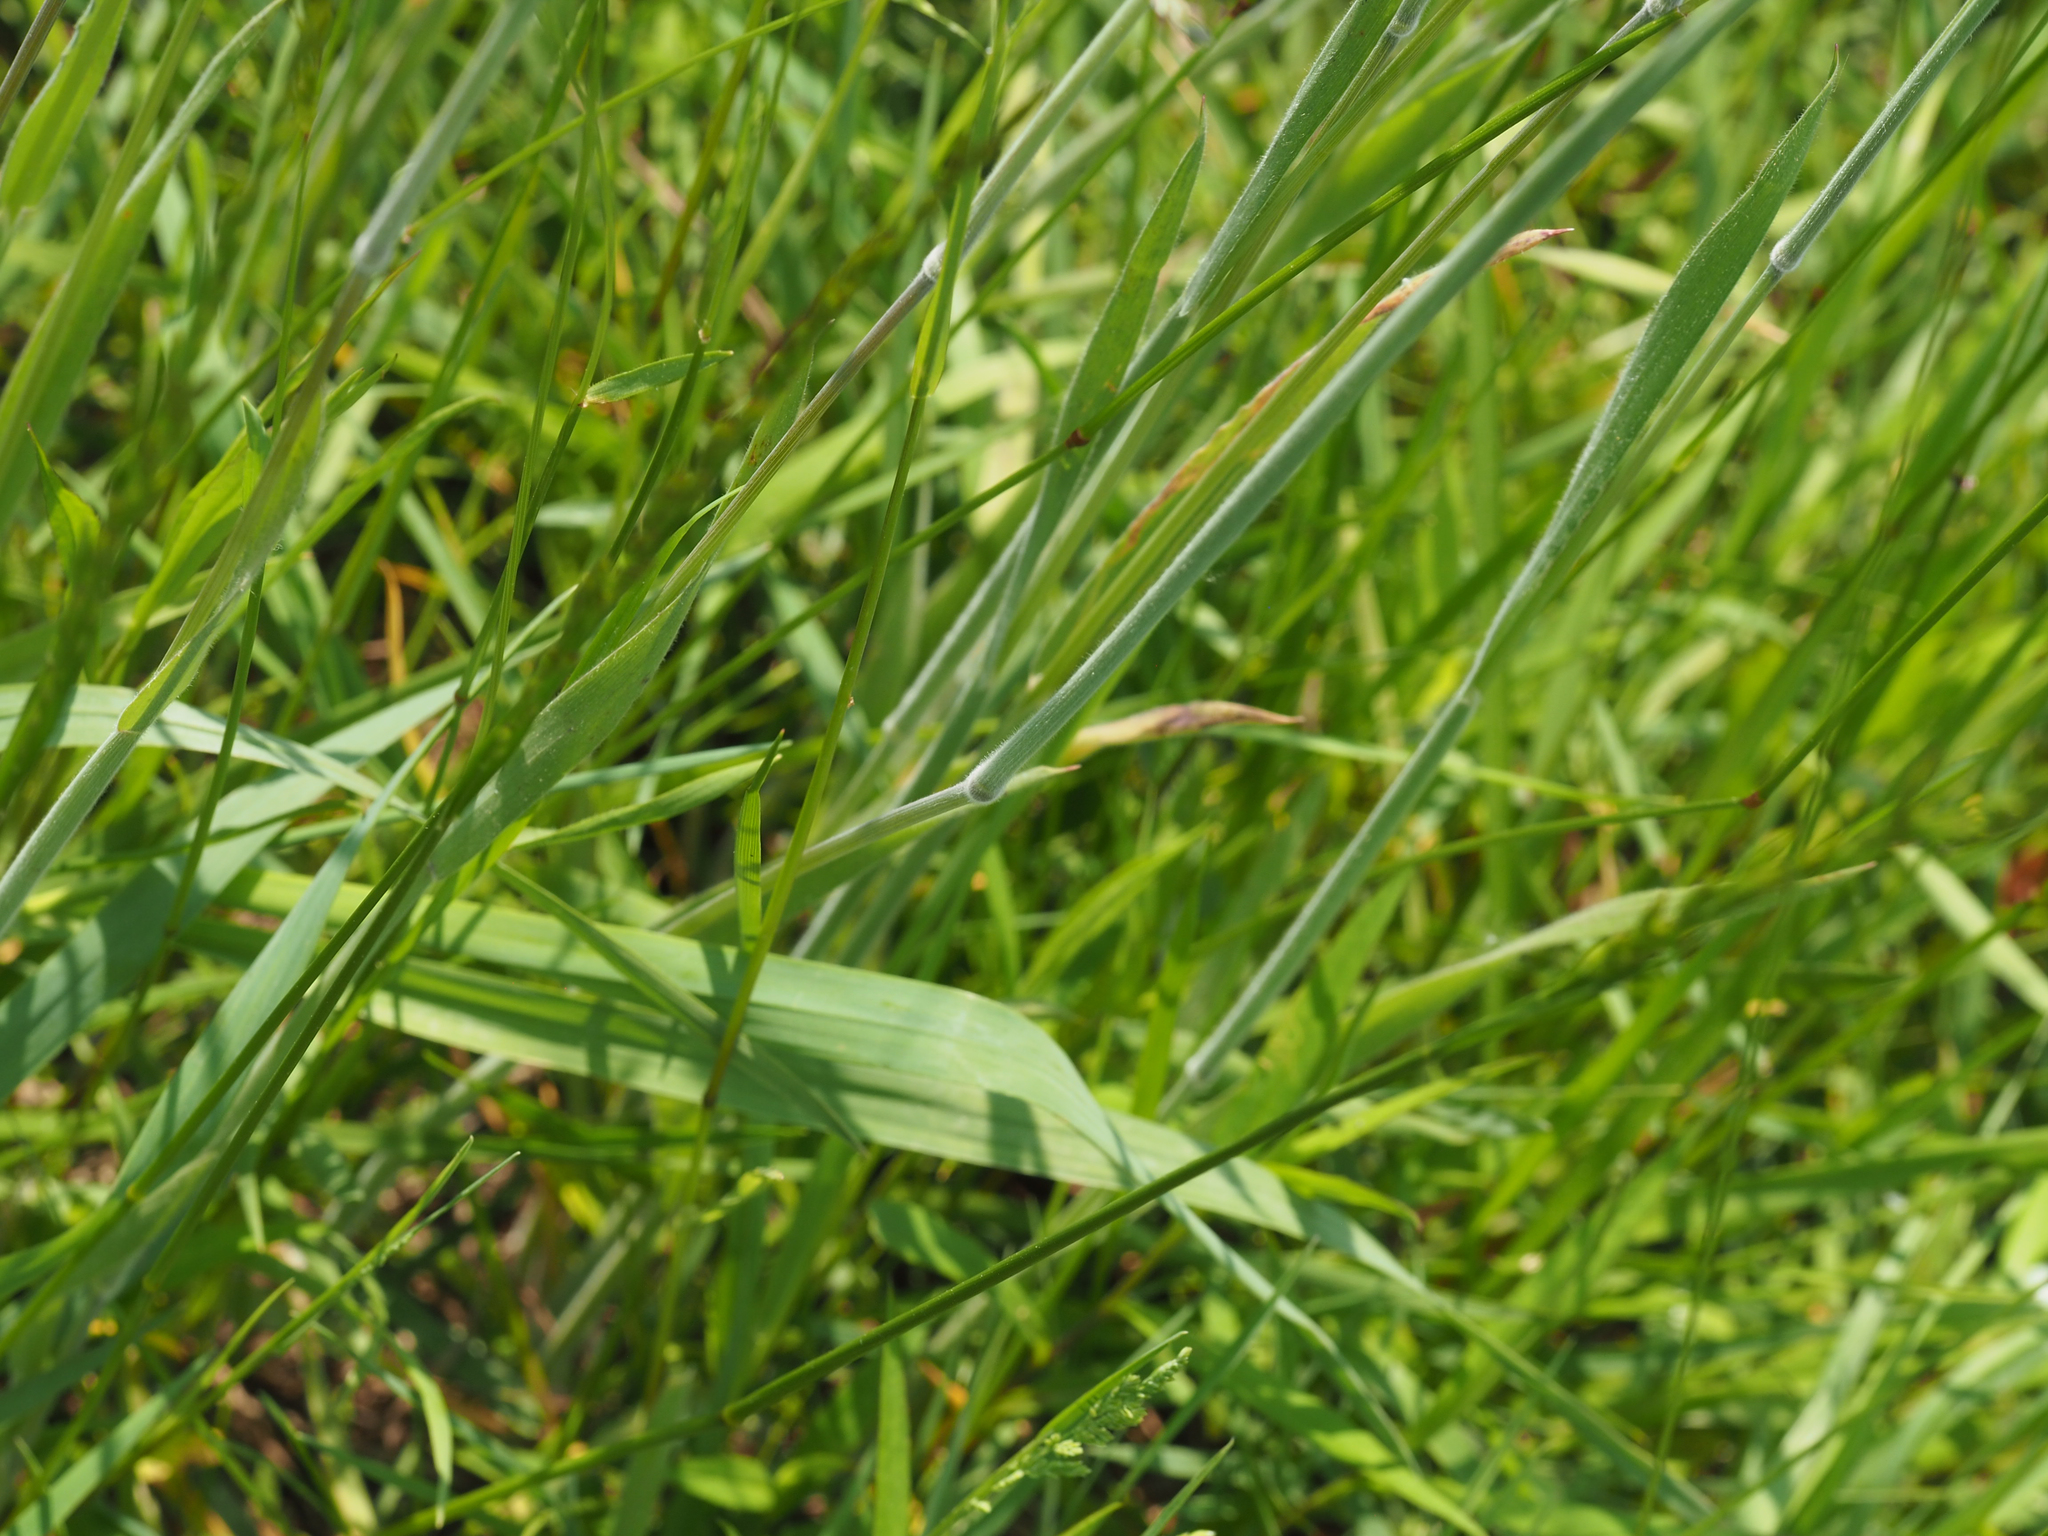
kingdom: Plantae
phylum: Tracheophyta
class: Liliopsida
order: Poales
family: Poaceae
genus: Holcus
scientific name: Holcus lanatus
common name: Yorkshire-fog
